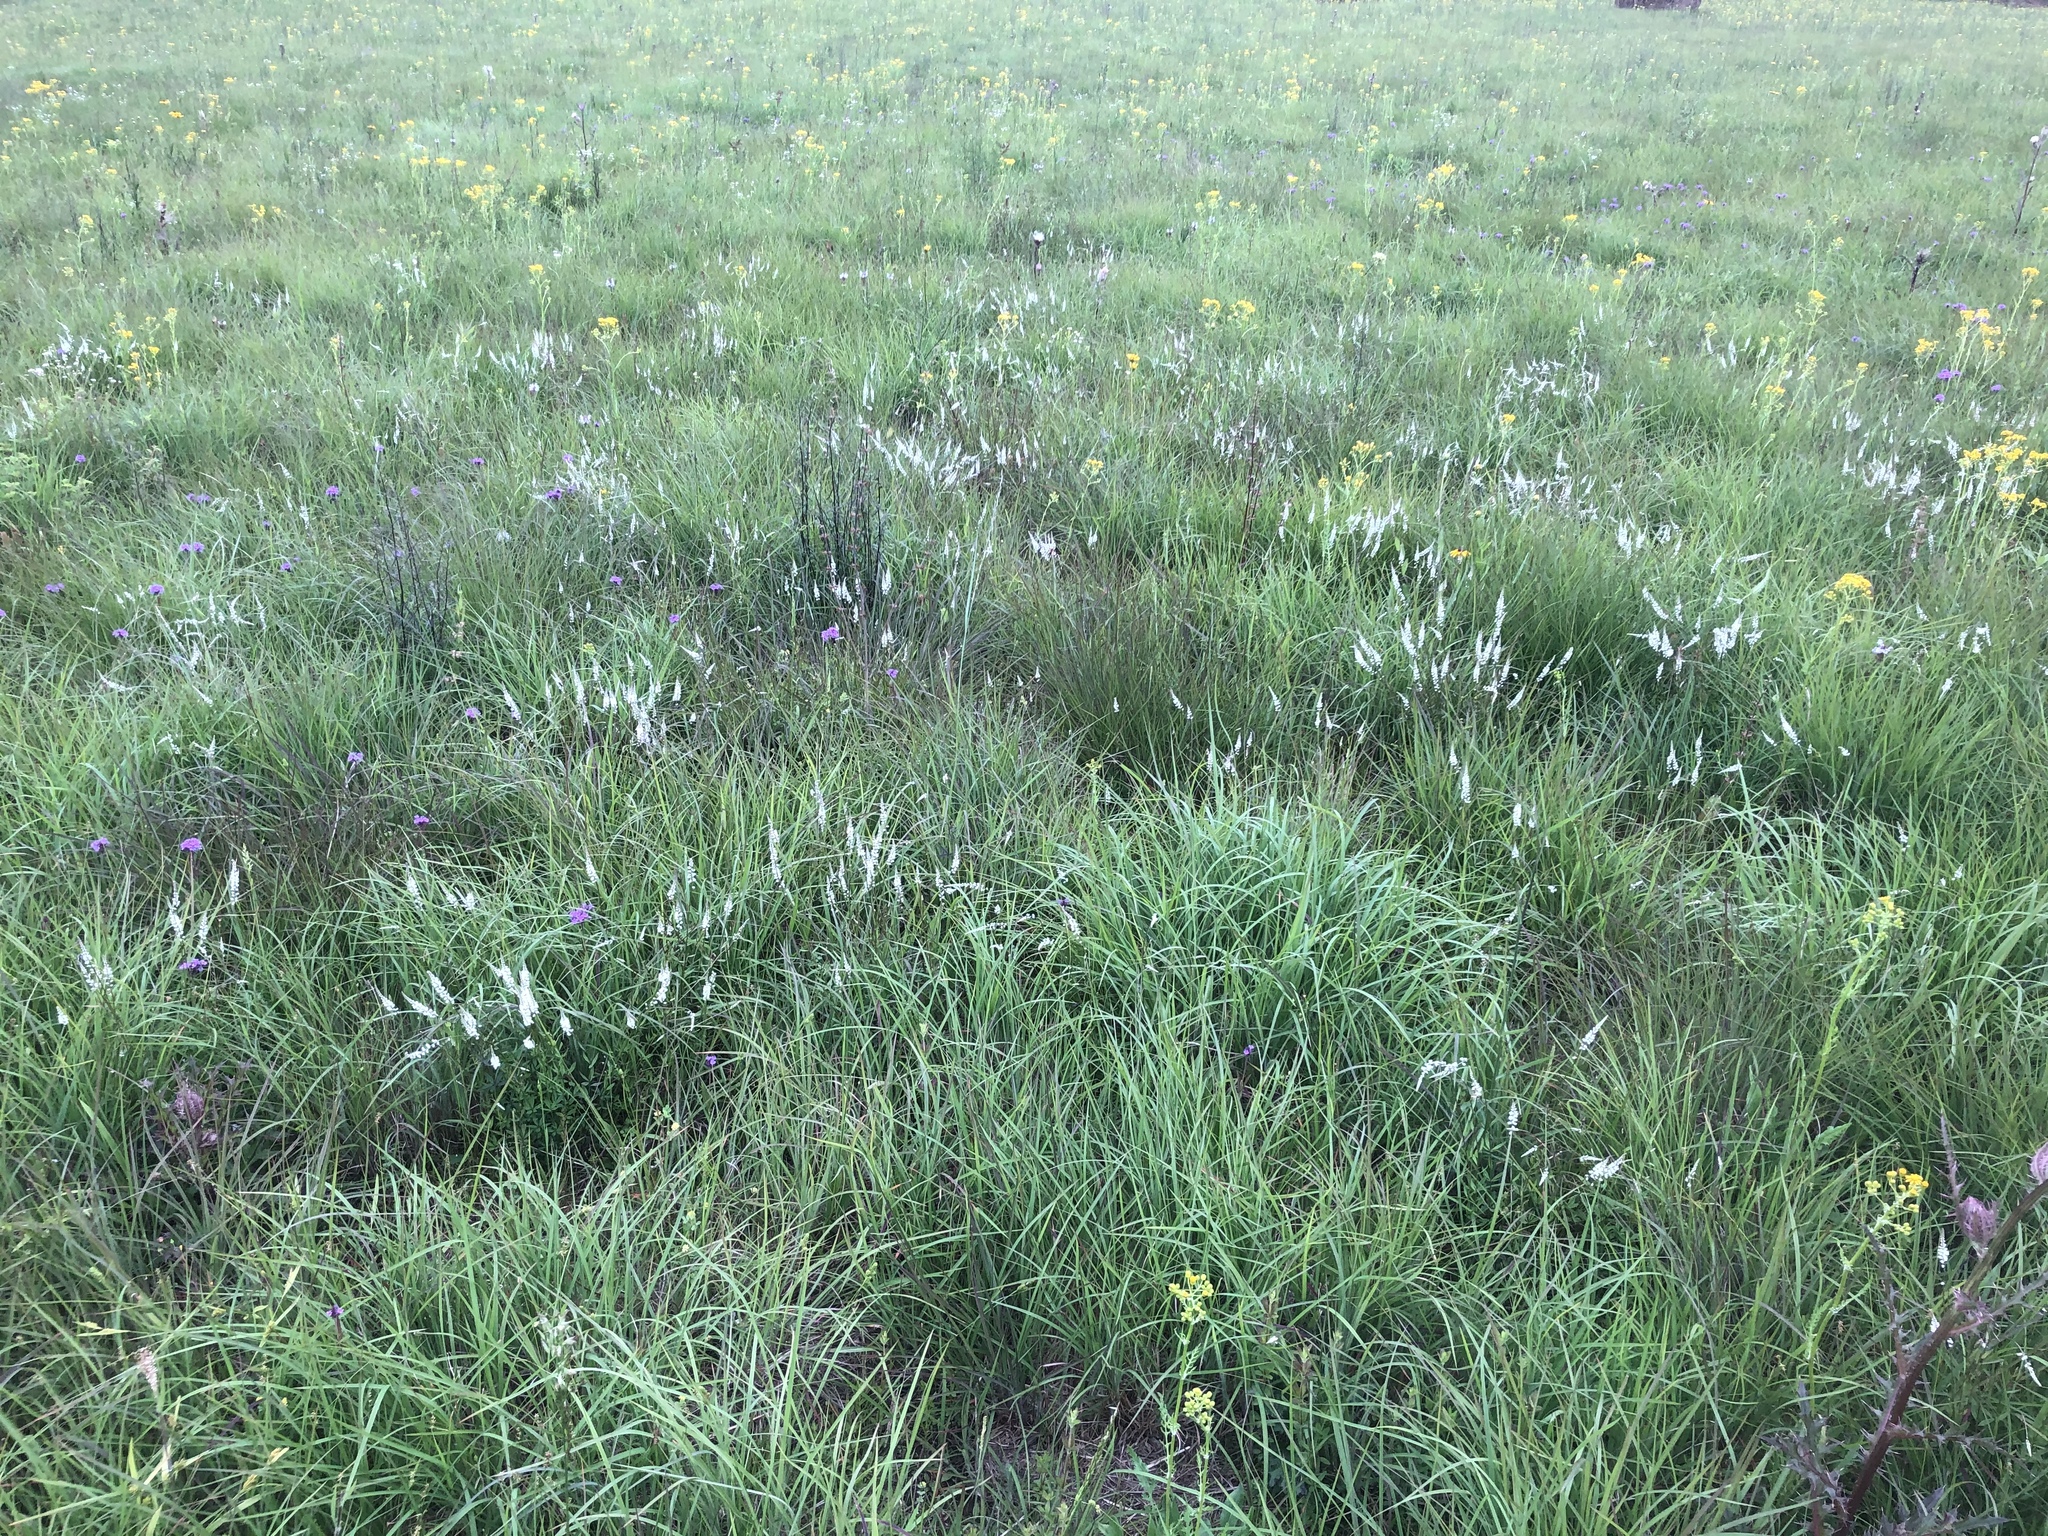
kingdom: Plantae
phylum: Tracheophyta
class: Magnoliopsida
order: Fabales
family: Polygalaceae
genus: Polygala
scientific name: Polygala boykinii
